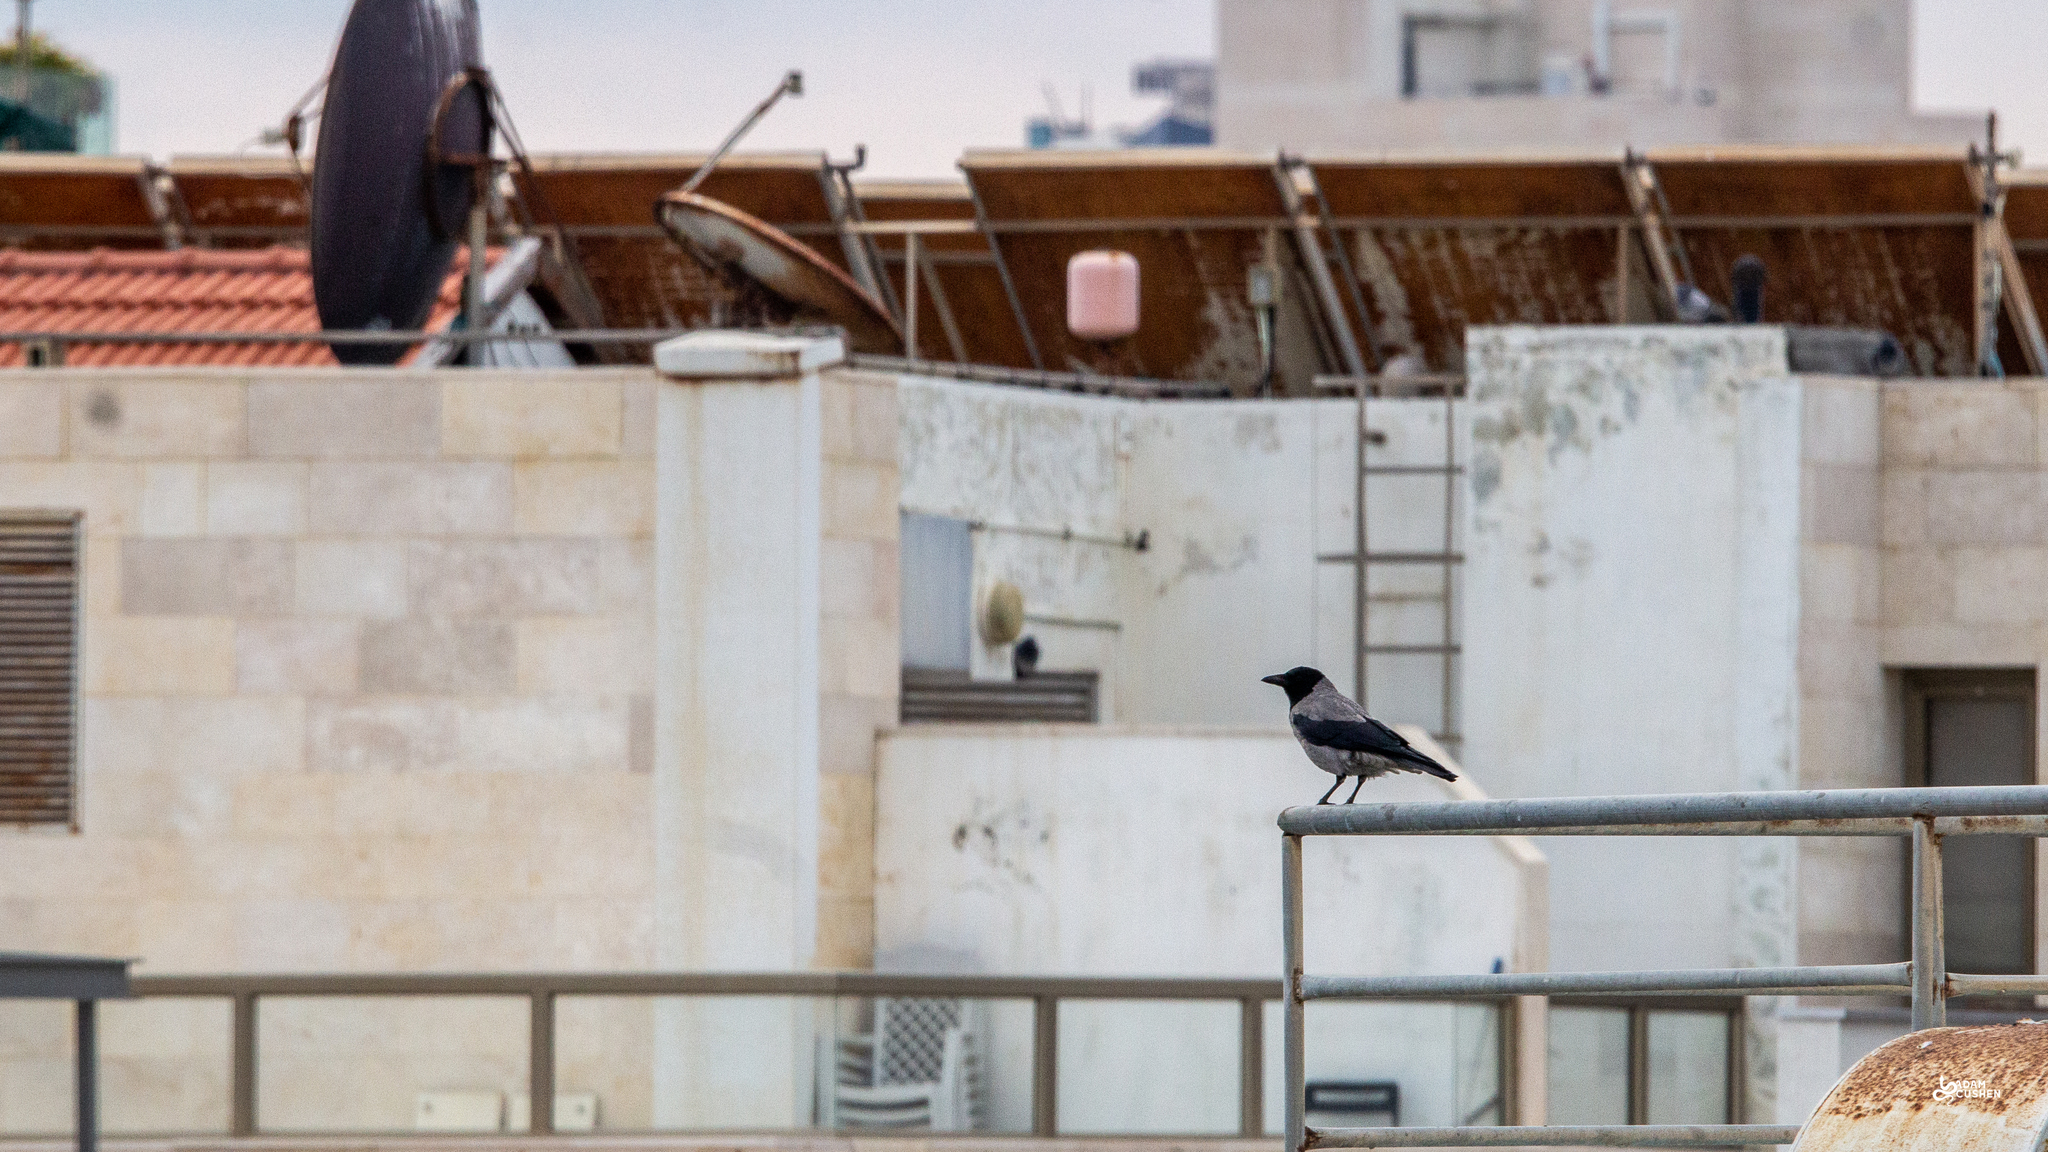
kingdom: Animalia
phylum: Chordata
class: Aves
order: Passeriformes
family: Corvidae
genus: Corvus
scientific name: Corvus cornix
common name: Hooded crow
